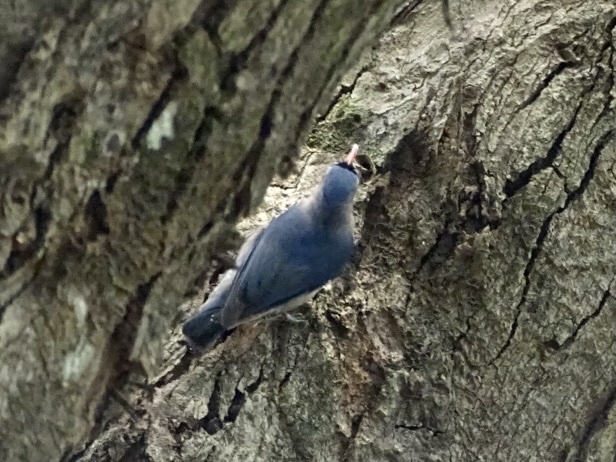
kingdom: Animalia
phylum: Chordata
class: Aves
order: Passeriformes
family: Sittidae
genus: Sitta
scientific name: Sitta frontalis
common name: Velvet-fronted nuthatch
